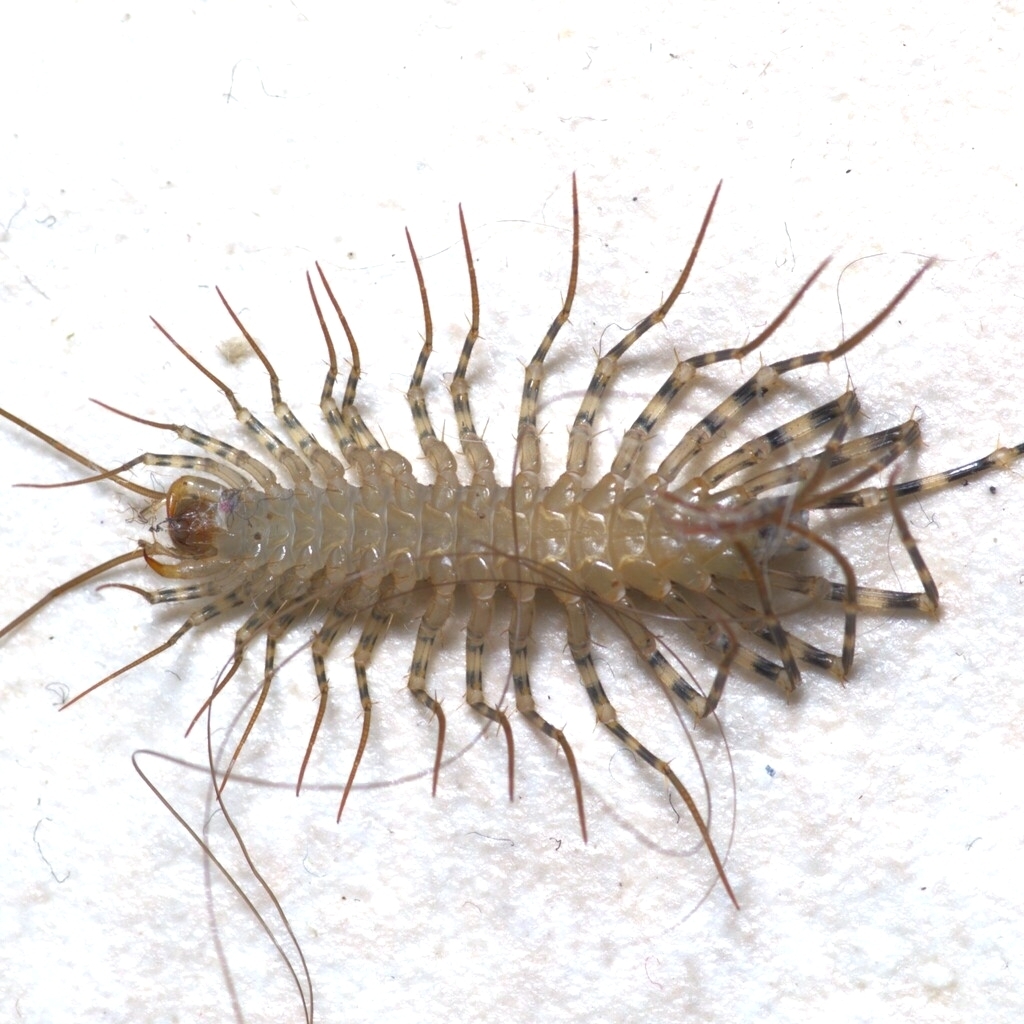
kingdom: Animalia
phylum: Arthropoda
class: Chilopoda
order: Scutigeromorpha
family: Scutigeridae
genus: Thereuonema
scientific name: Thereuonema tuberculata
